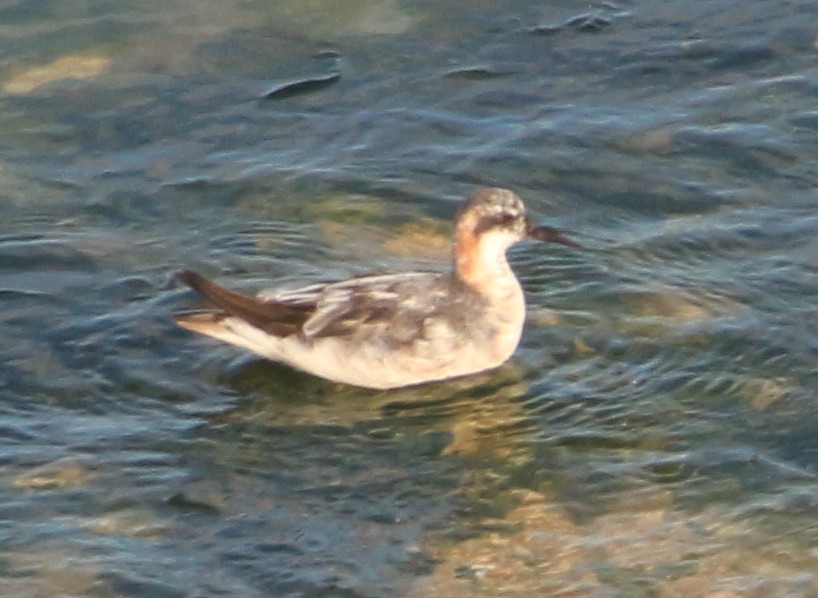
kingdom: Animalia
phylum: Chordata
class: Aves
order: Charadriiformes
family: Scolopacidae
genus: Phalaropus
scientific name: Phalaropus lobatus
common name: Red-necked phalarope
